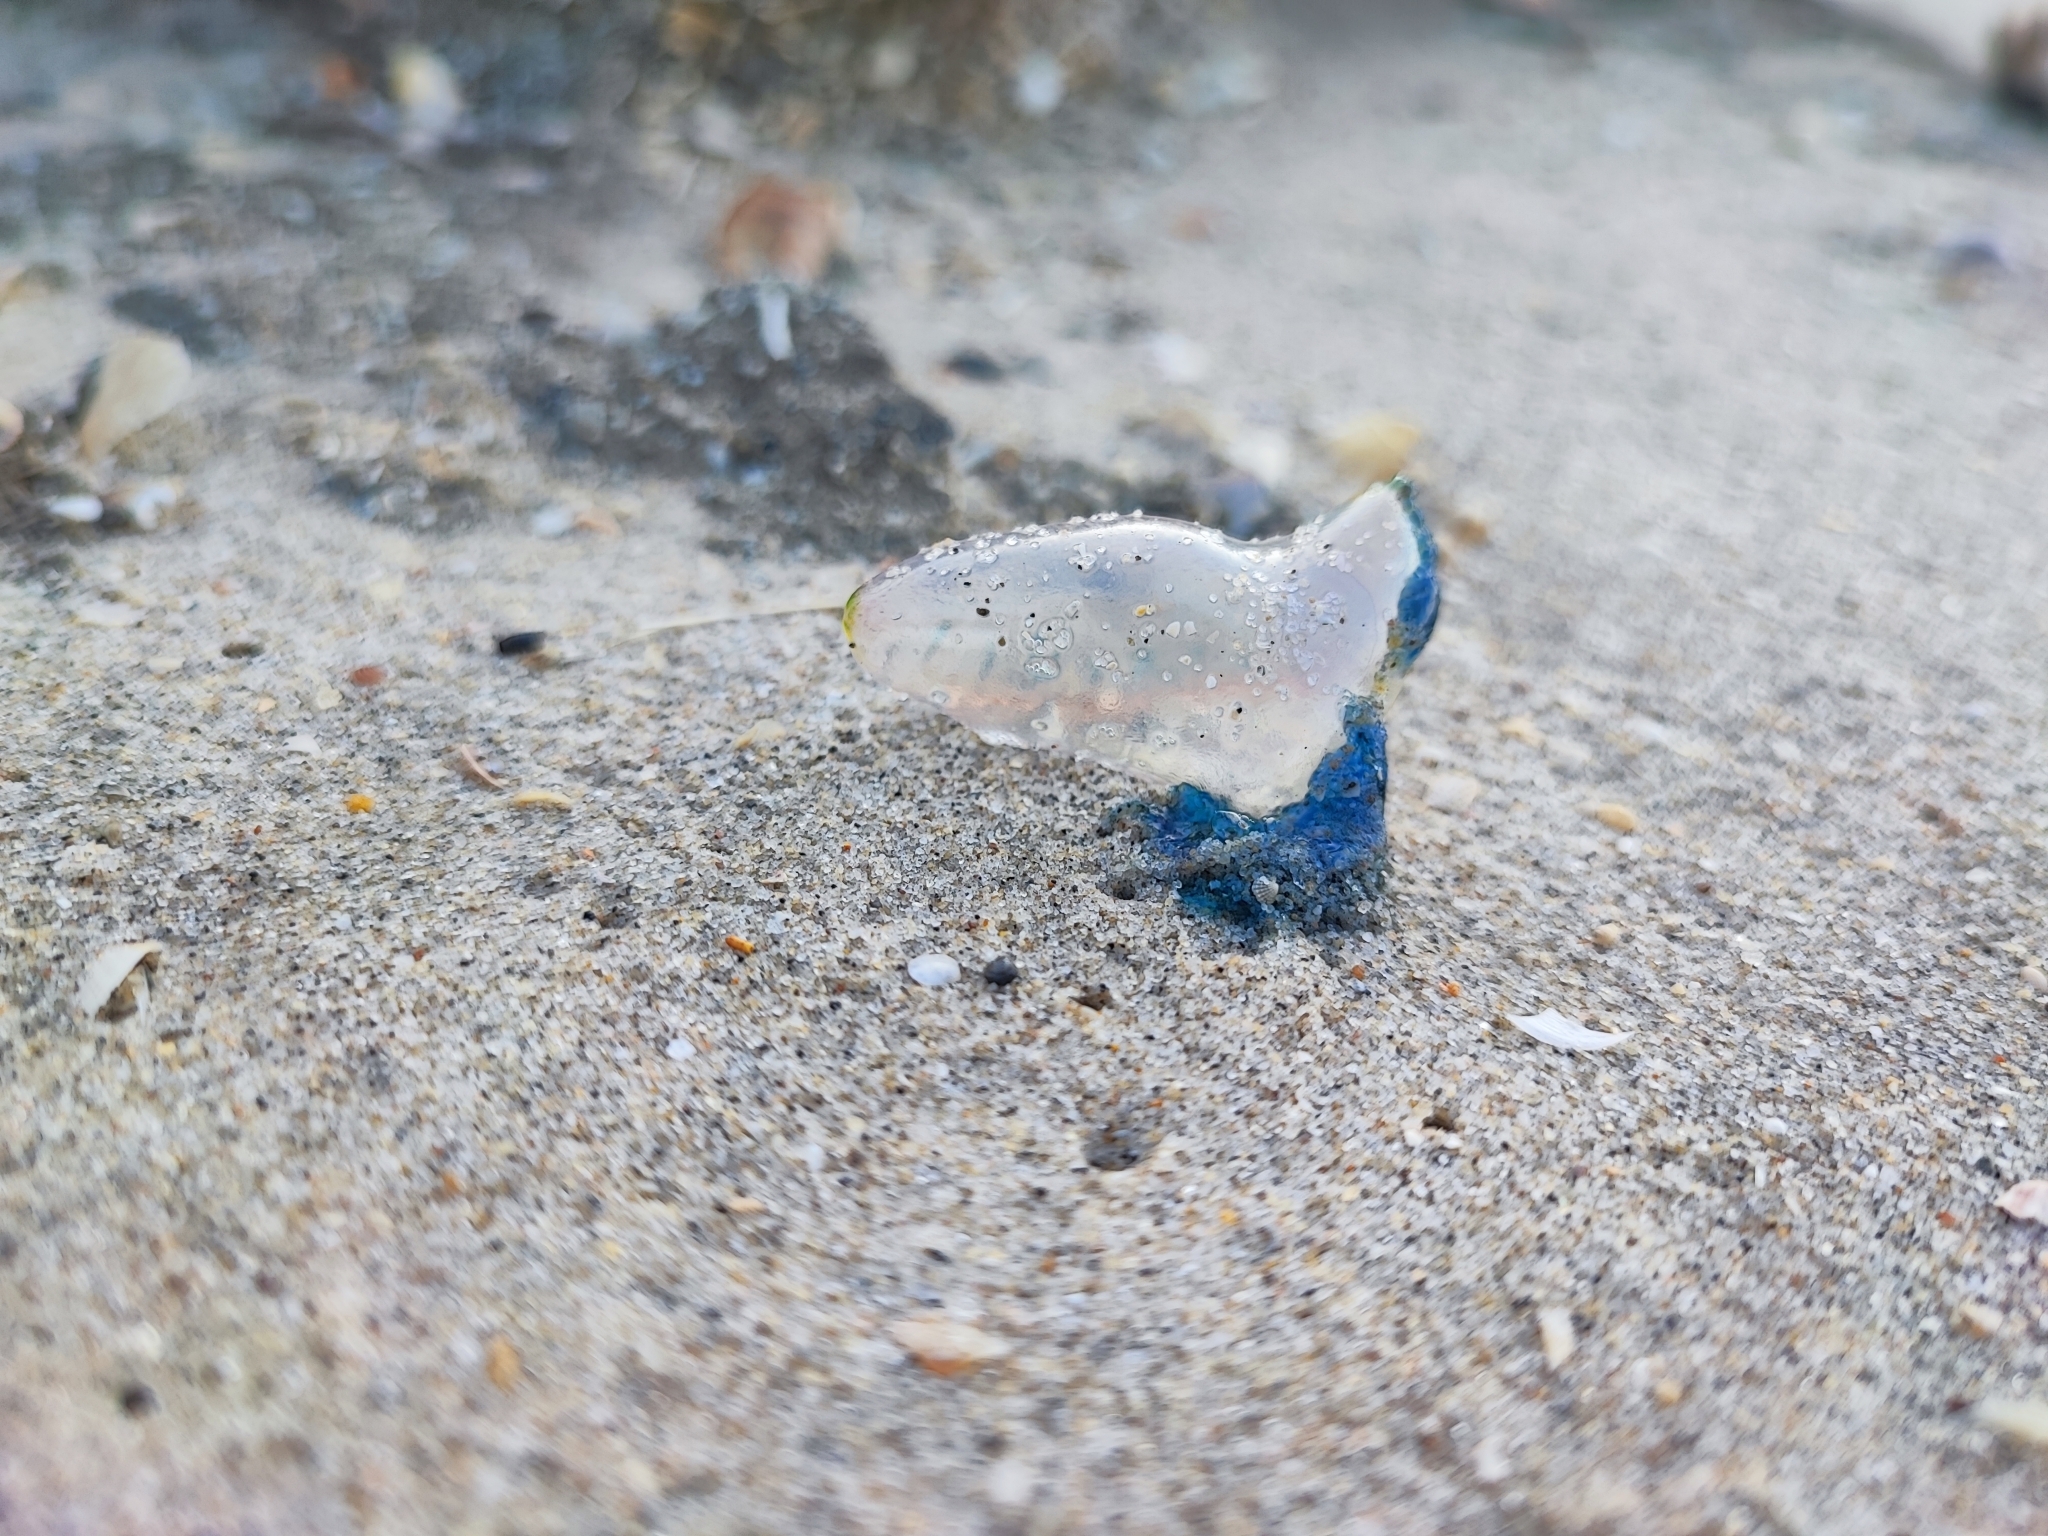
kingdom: Animalia
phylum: Cnidaria
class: Hydrozoa
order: Siphonophorae
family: Physaliidae
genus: Physalia
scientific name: Physalia physalis
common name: Portuguese man-of-war
